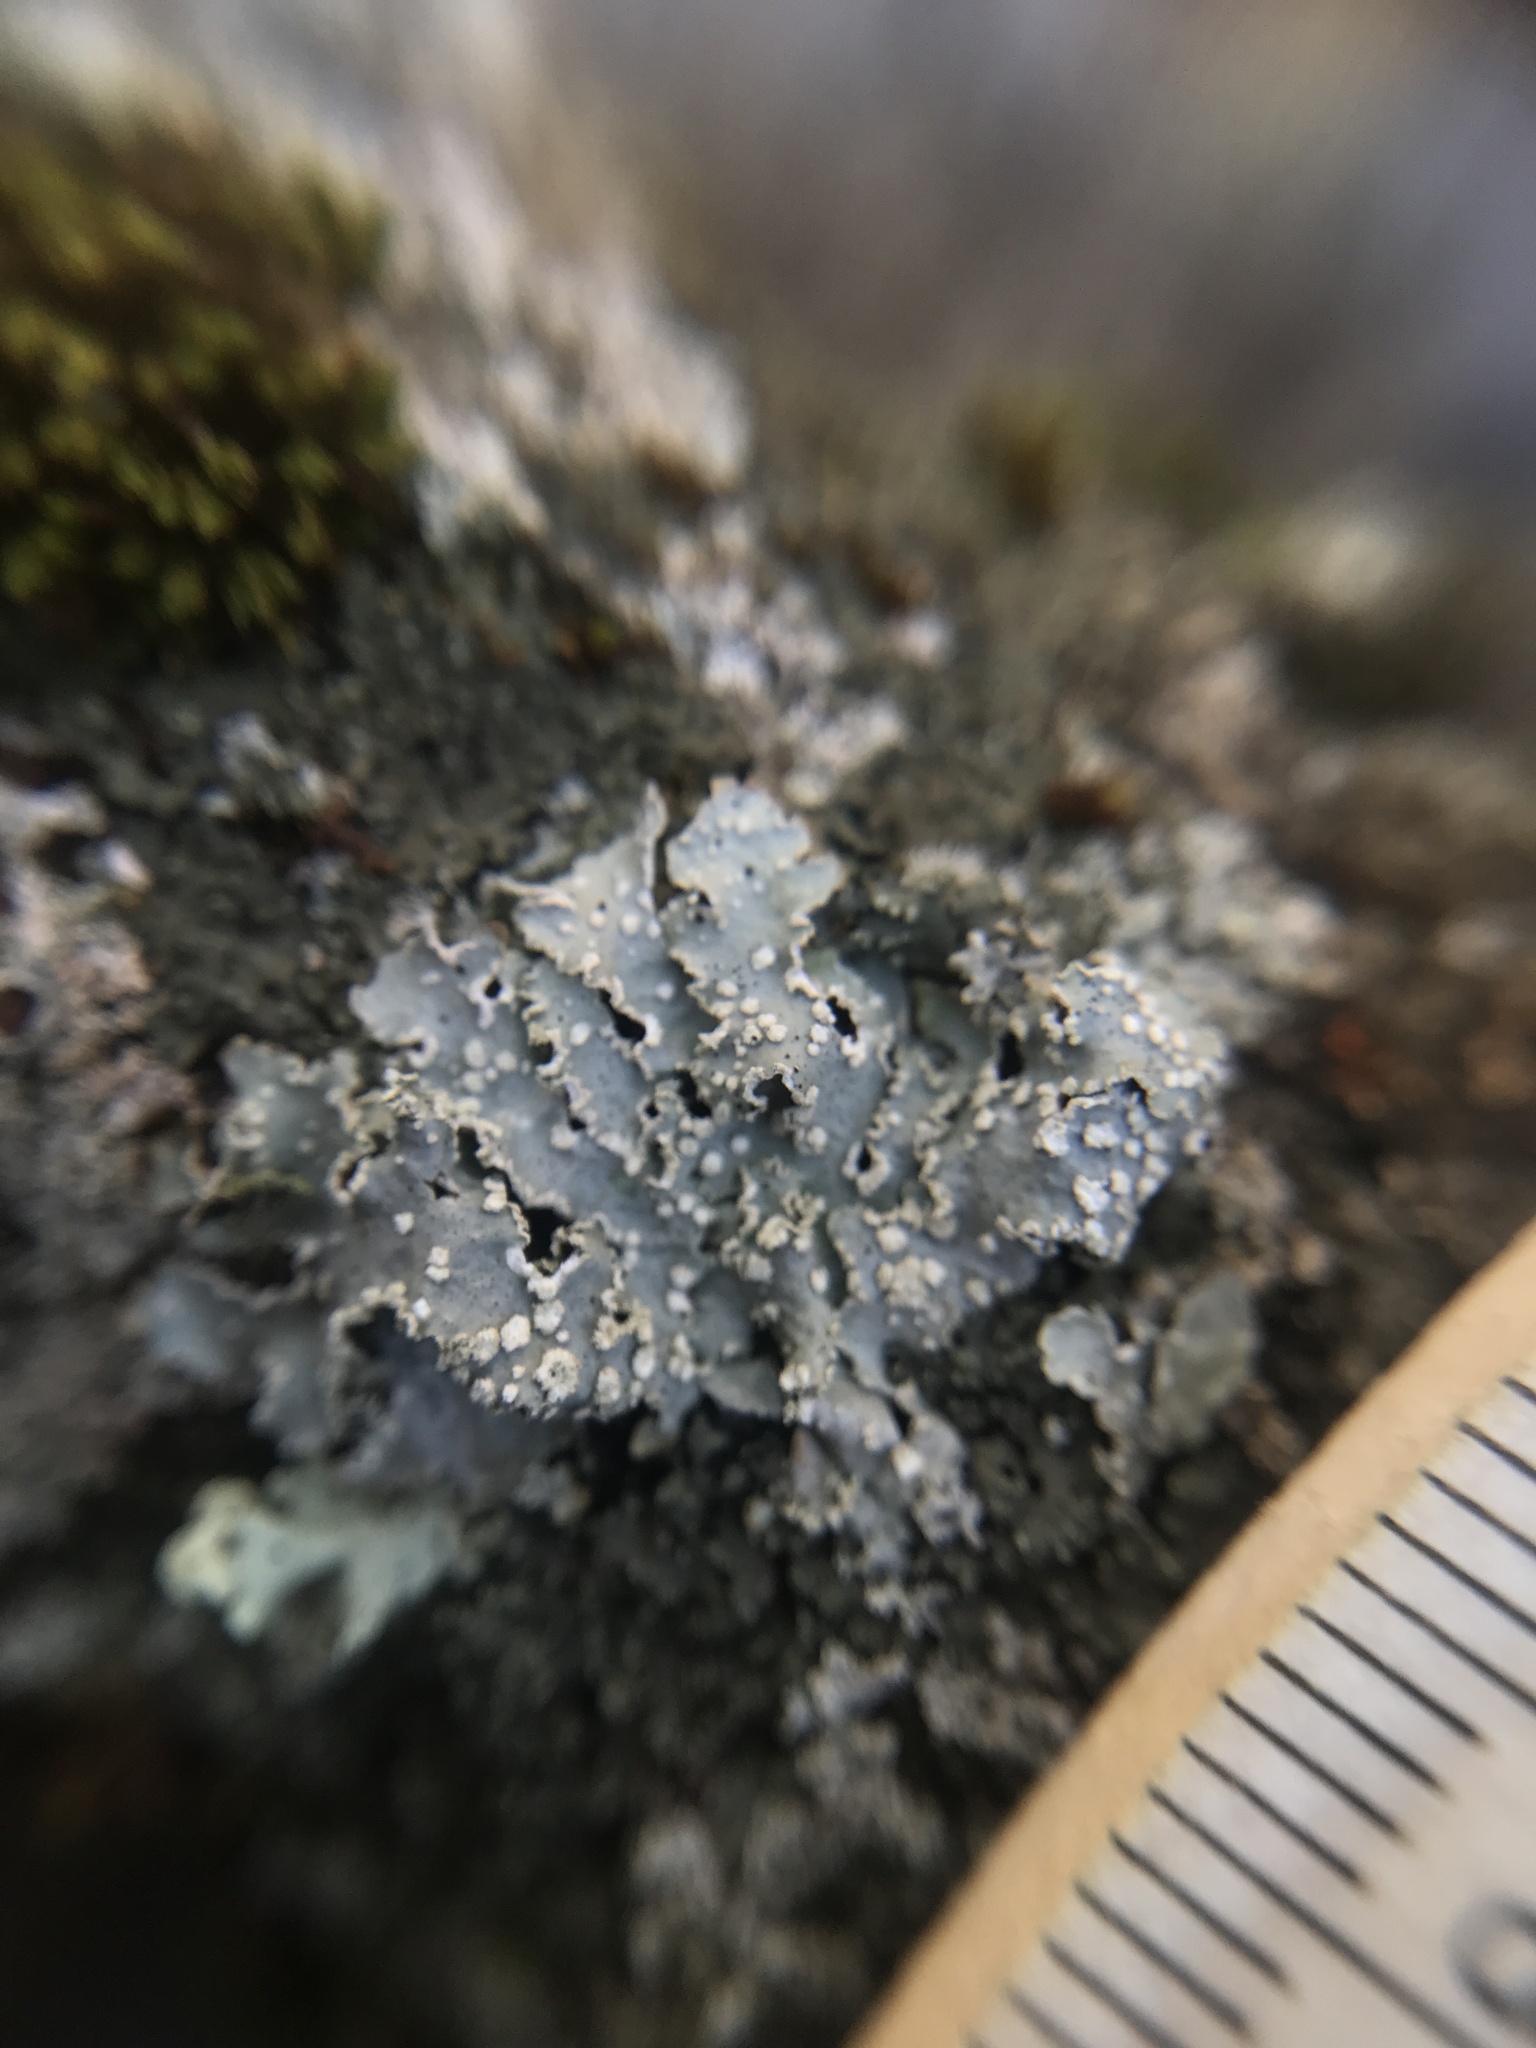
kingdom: Fungi
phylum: Ascomycota
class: Lecanoromycetes
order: Lecanorales
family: Parmeliaceae
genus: Punctelia
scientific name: Punctelia caseana
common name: Moondust speckled lichen
